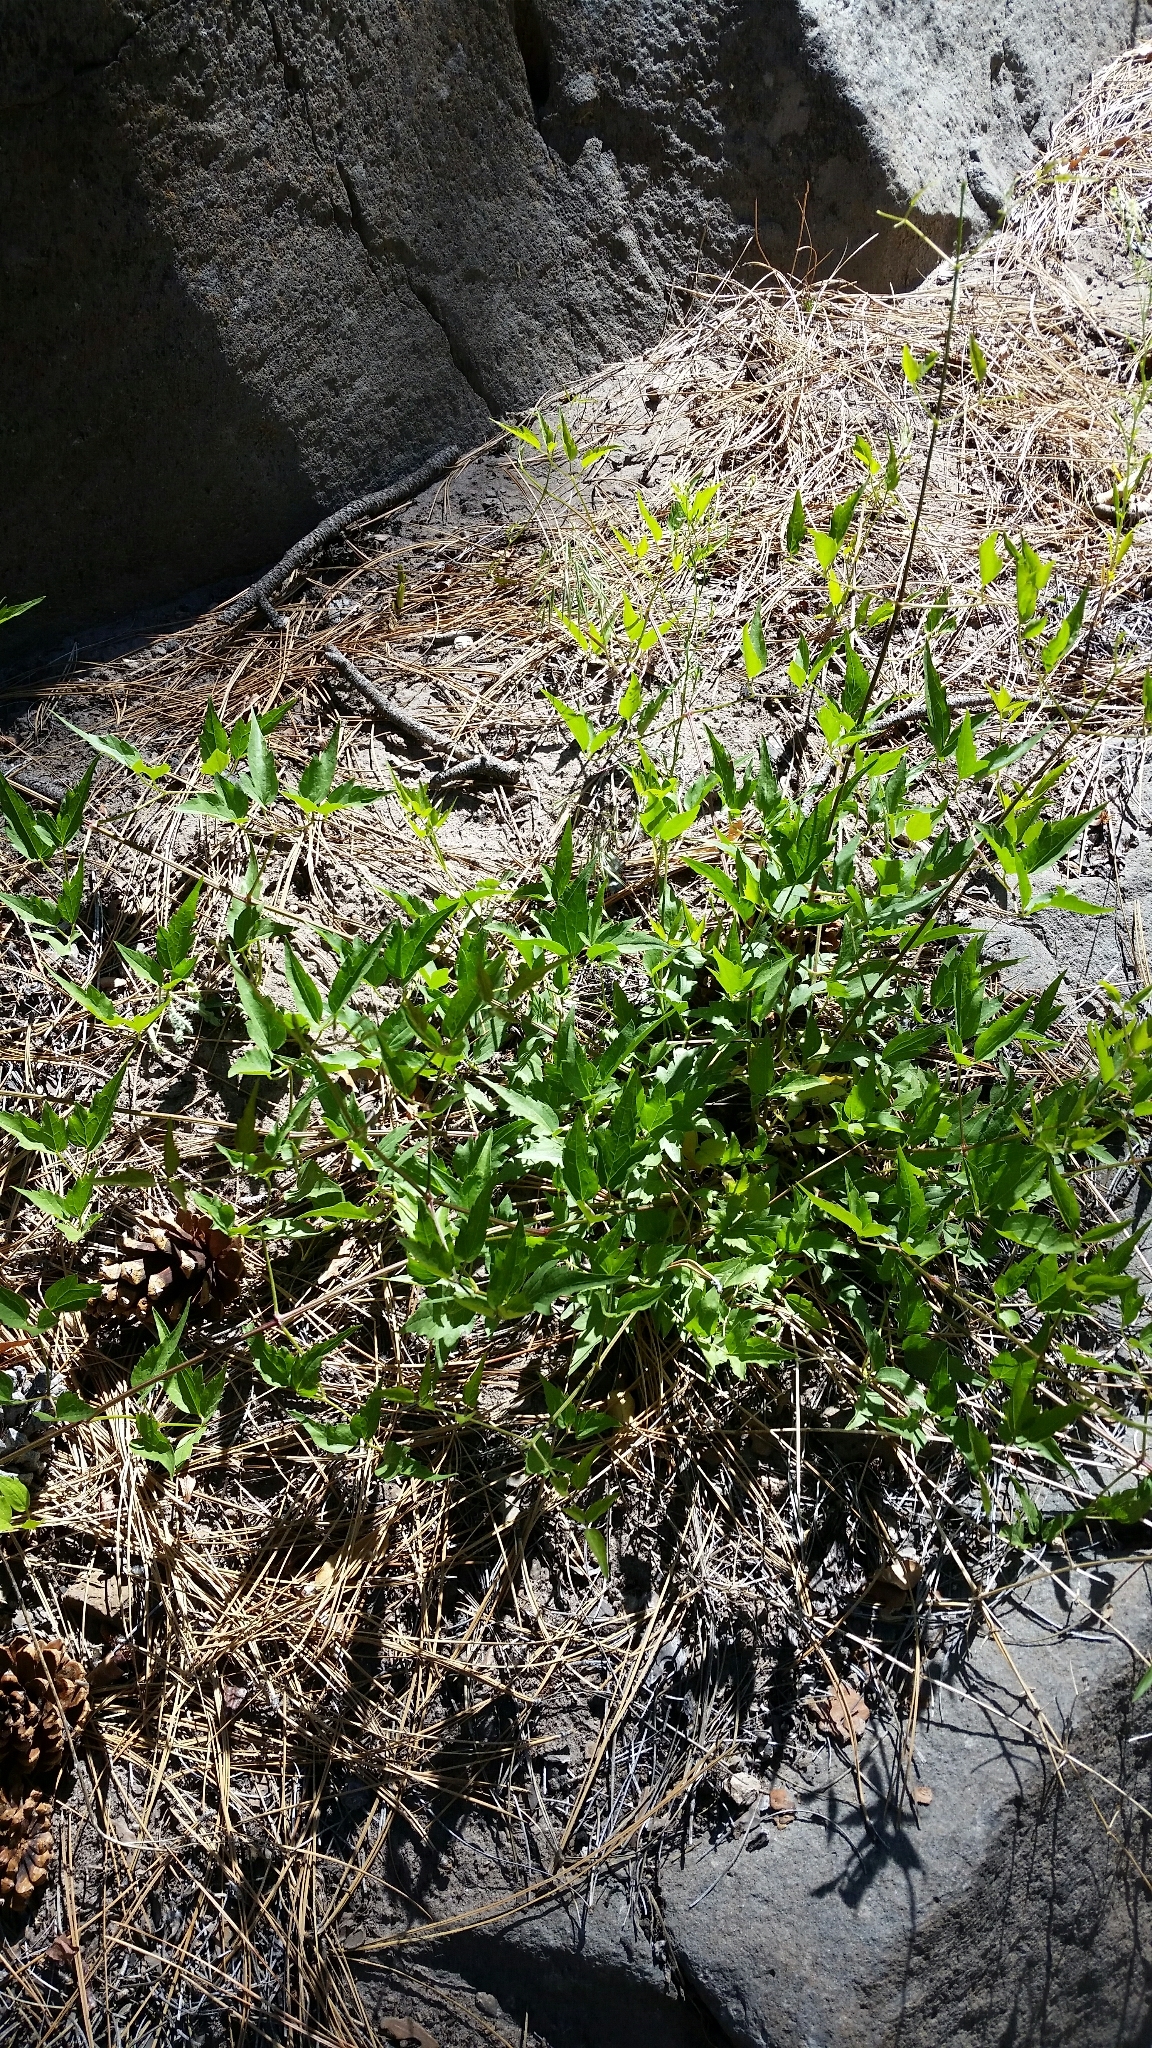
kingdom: Plantae
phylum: Tracheophyta
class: Magnoliopsida
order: Ranunculales
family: Ranunculaceae
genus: Clematis
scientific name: Clematis ligusticifolia
